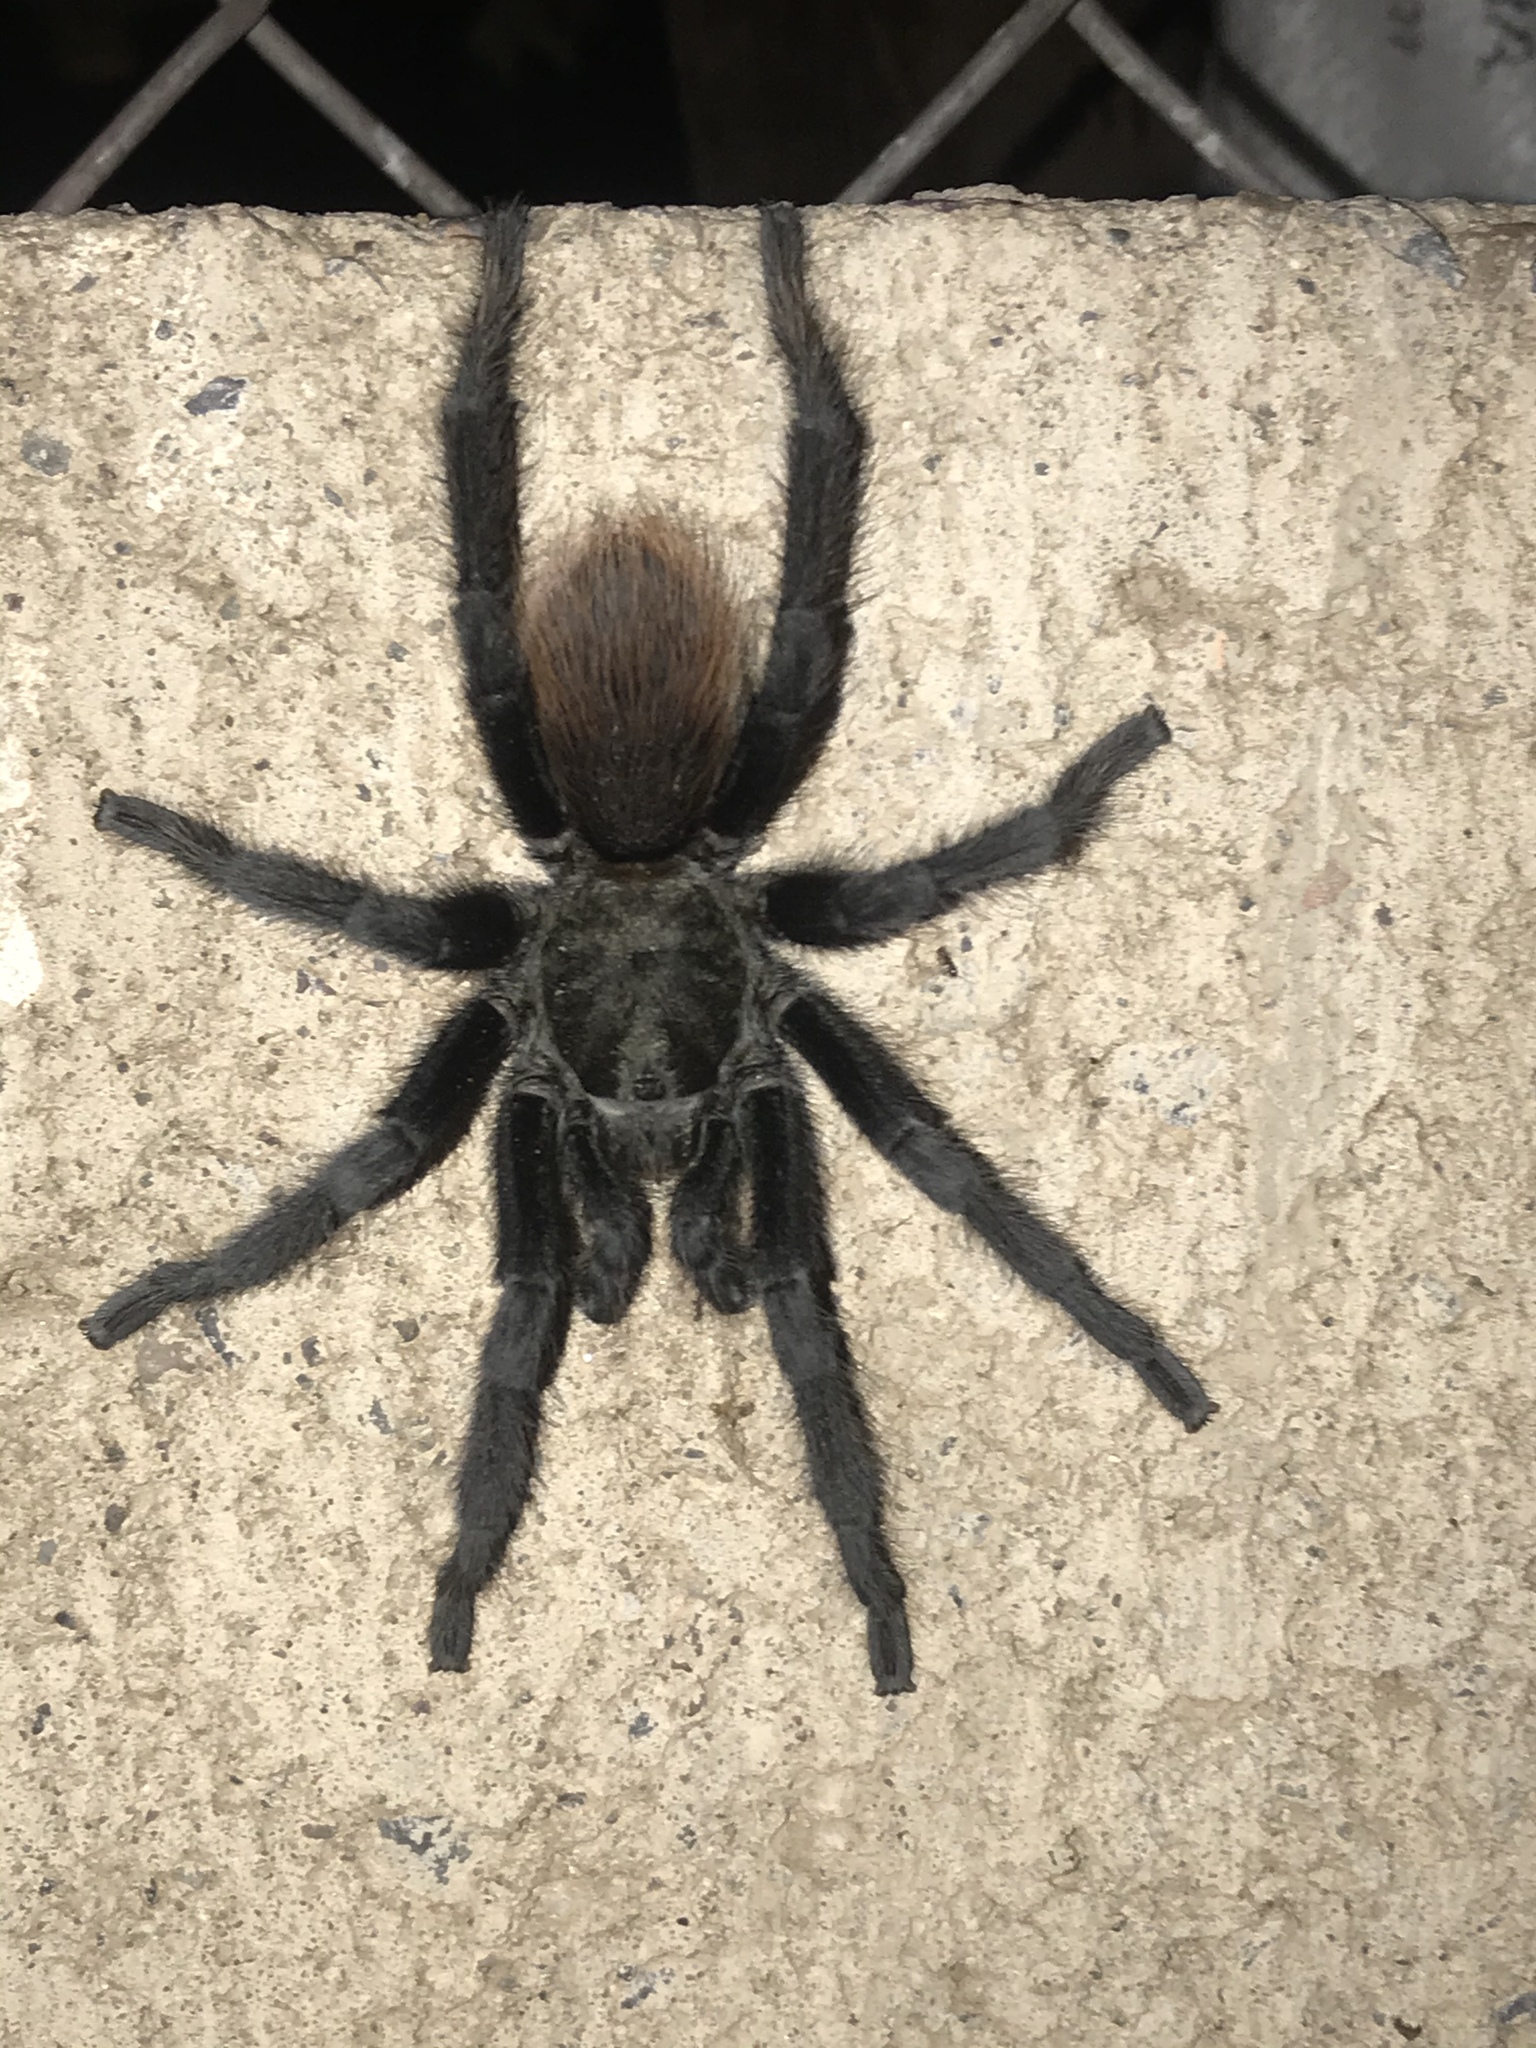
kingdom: Animalia
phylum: Arthropoda
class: Arachnida
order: Araneae
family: Theraphosidae
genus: Aphonopelma
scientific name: Aphonopelma vorhiesi
